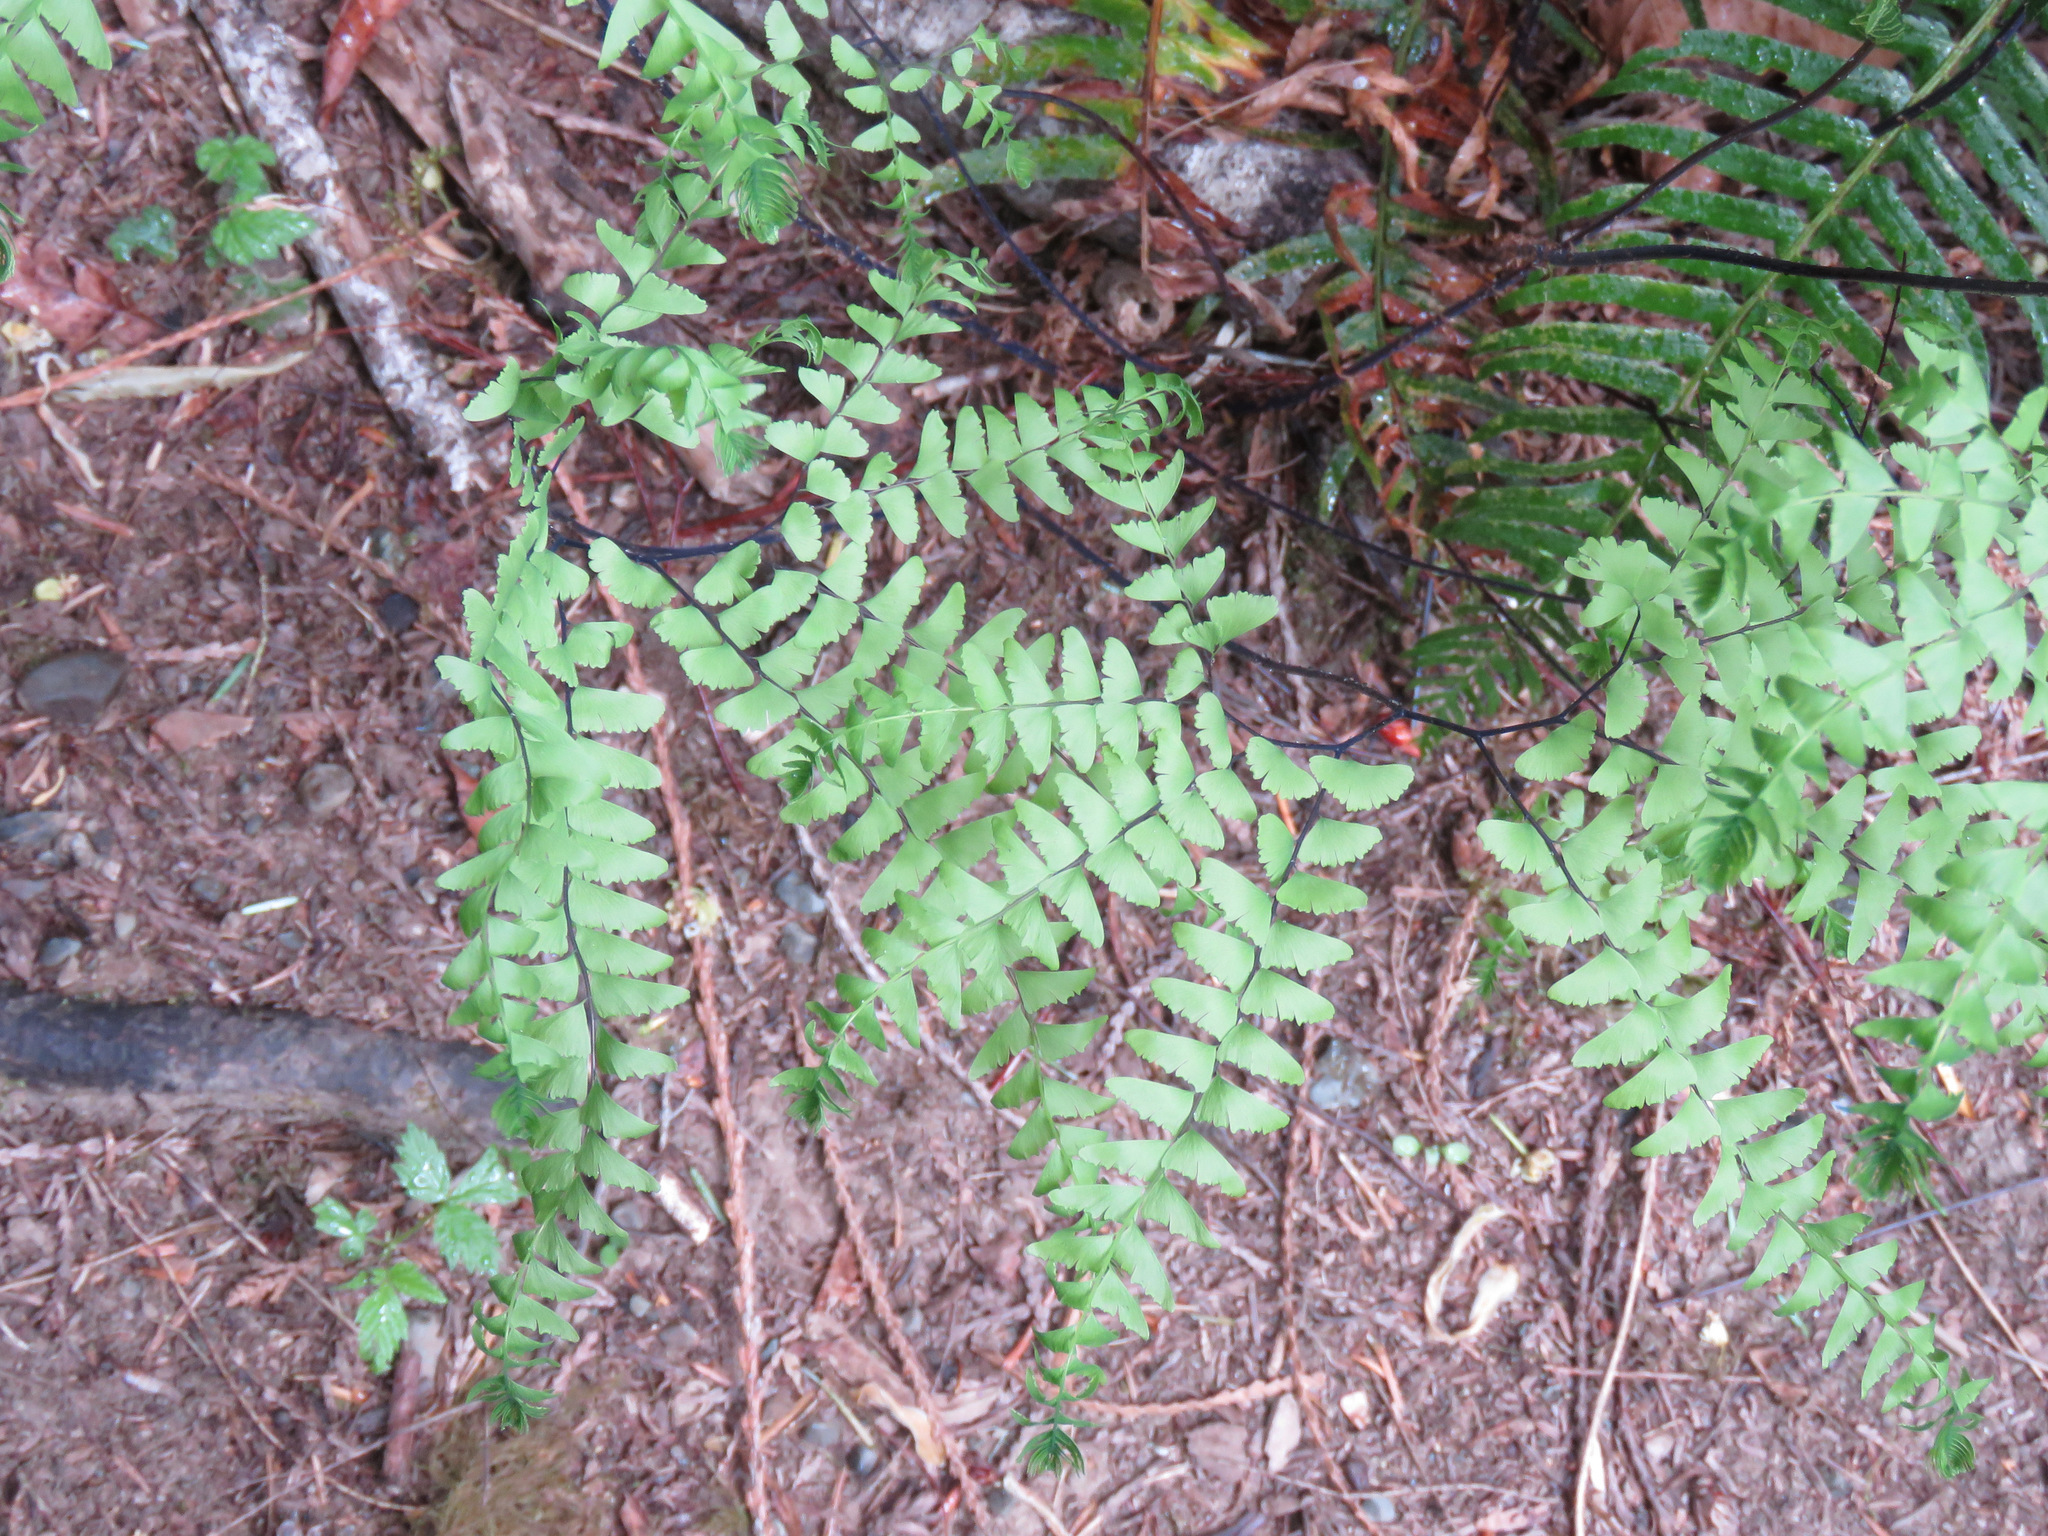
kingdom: Plantae
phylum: Tracheophyta
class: Polypodiopsida
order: Polypodiales
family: Pteridaceae
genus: Adiantum
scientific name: Adiantum aleuticum
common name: Aleutian maidenhair fern
